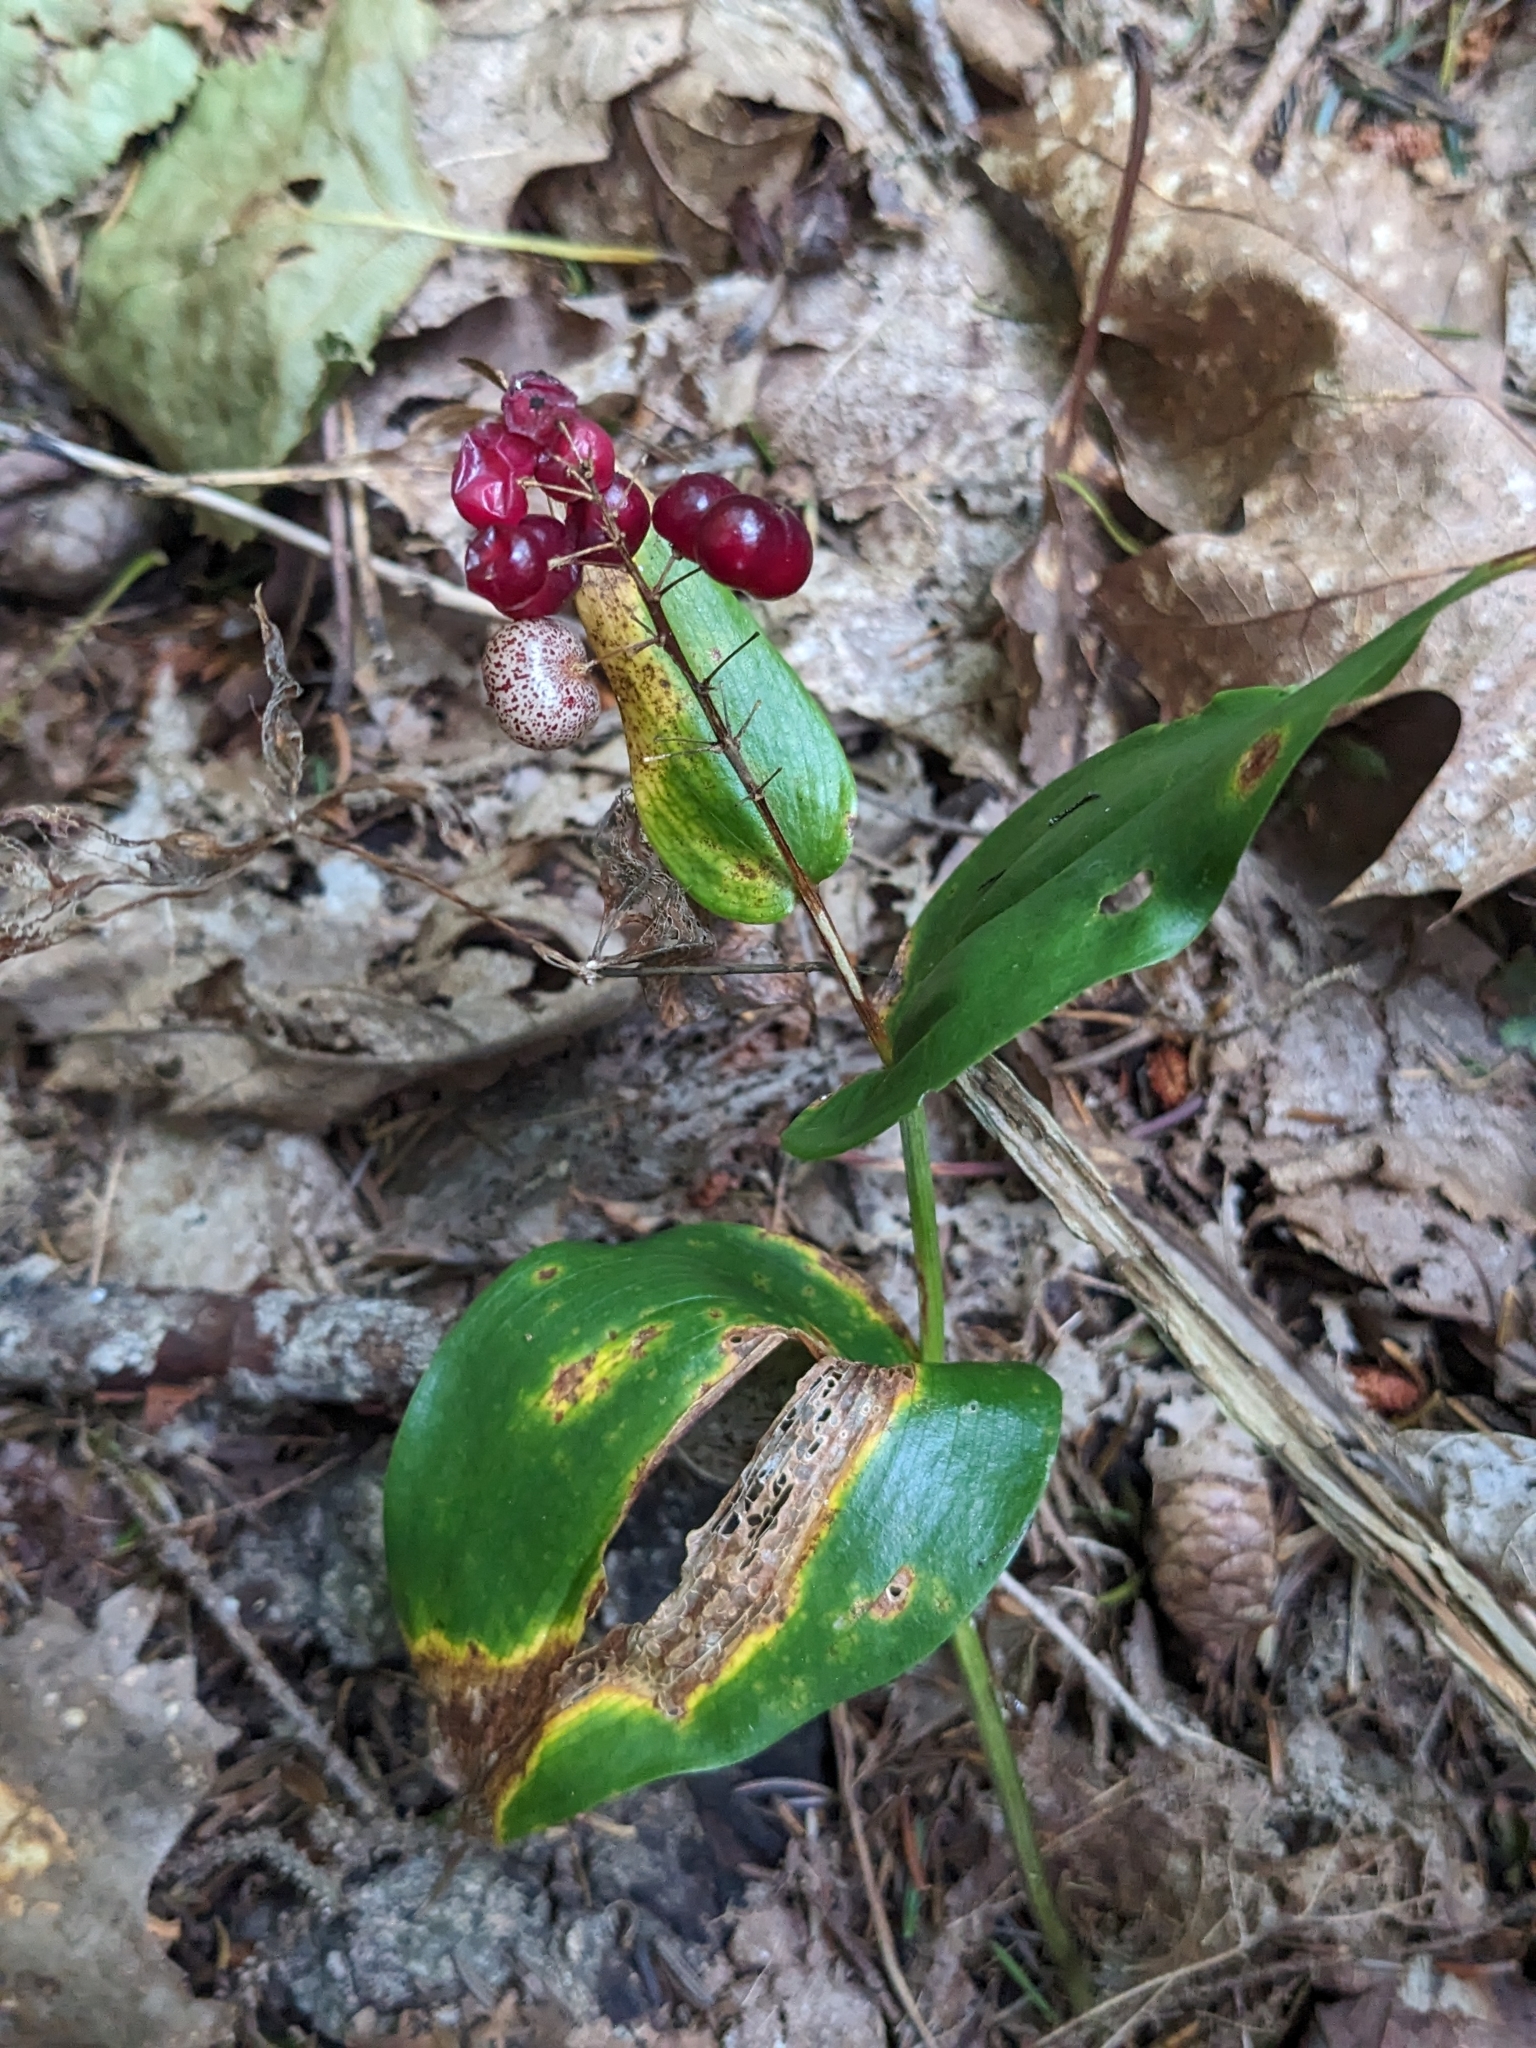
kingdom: Plantae
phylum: Tracheophyta
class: Liliopsida
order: Asparagales
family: Asparagaceae
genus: Maianthemum
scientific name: Maianthemum canadense
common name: False lily-of-the-valley
